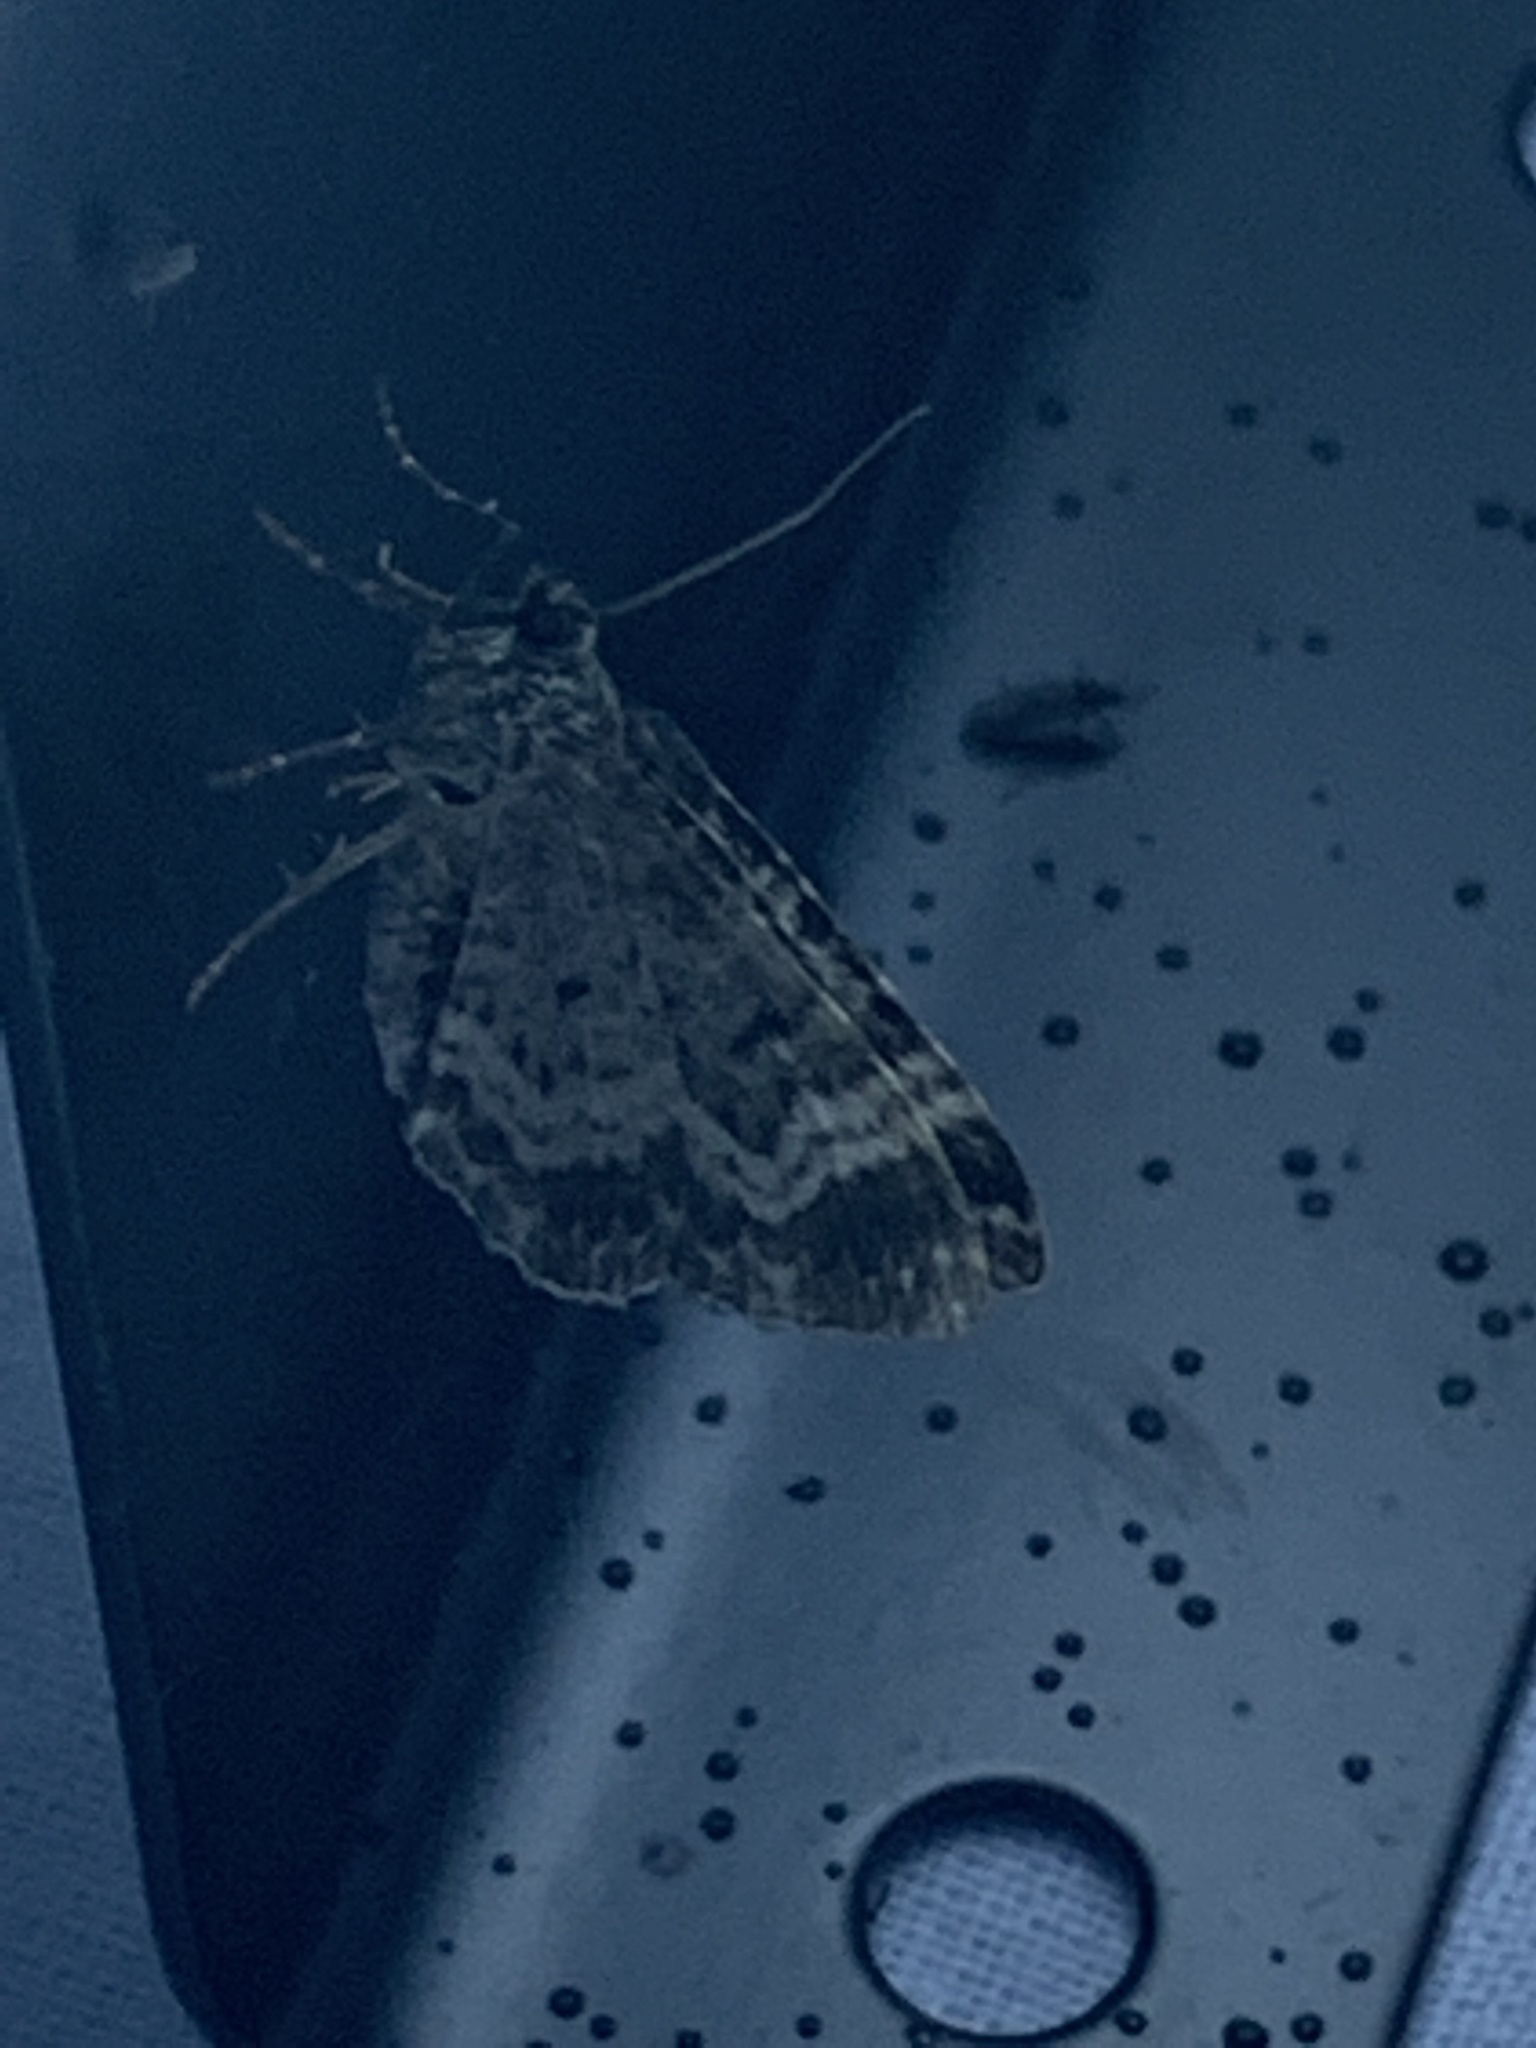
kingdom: Animalia
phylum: Arthropoda
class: Insecta
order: Lepidoptera
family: Geometridae
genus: Epirrhoe
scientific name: Epirrhoe alternata
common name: Common carpet
